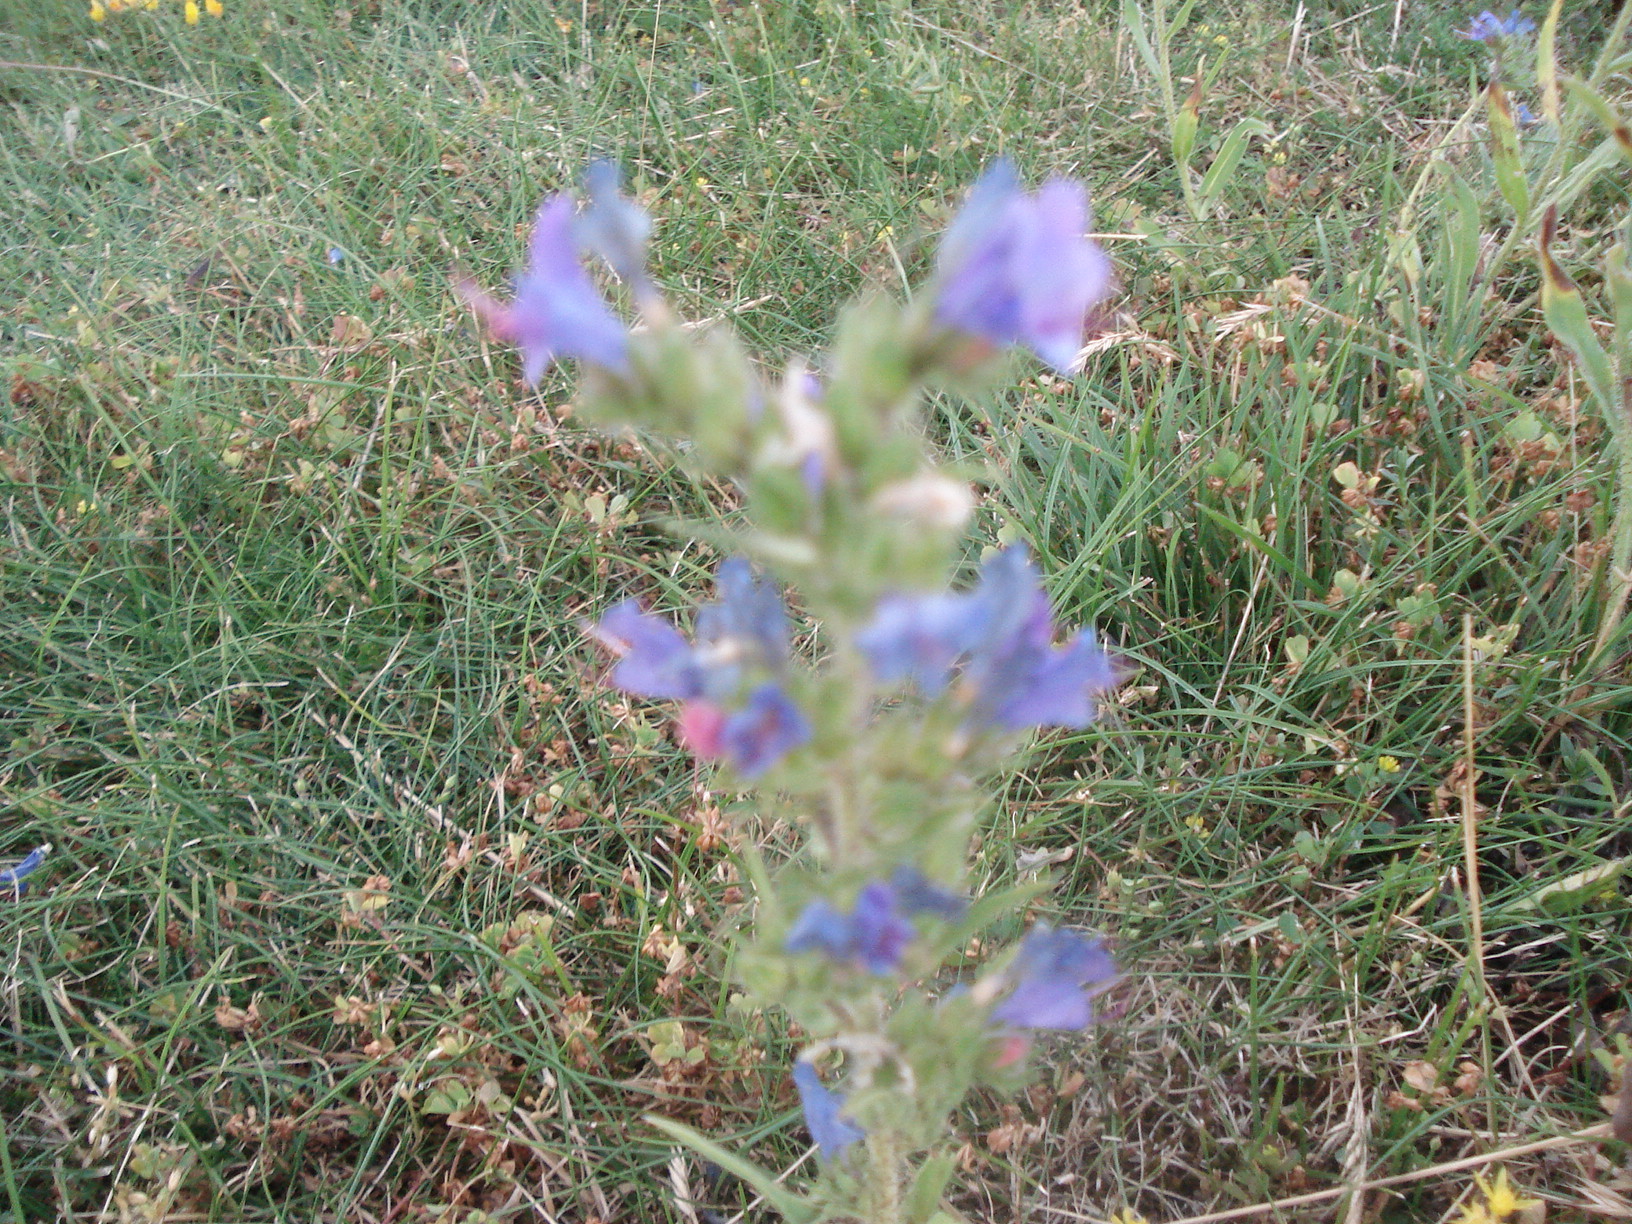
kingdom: Plantae
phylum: Tracheophyta
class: Magnoliopsida
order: Boraginales
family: Boraginaceae
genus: Echium
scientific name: Echium vulgare
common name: Common viper's bugloss
